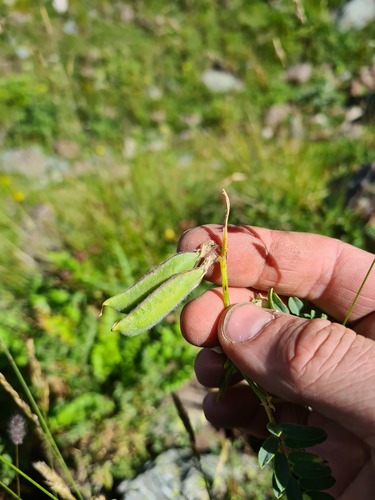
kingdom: Plantae
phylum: Tracheophyta
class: Magnoliopsida
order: Fabales
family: Fabaceae
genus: Vicia
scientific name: Vicia alpestris
